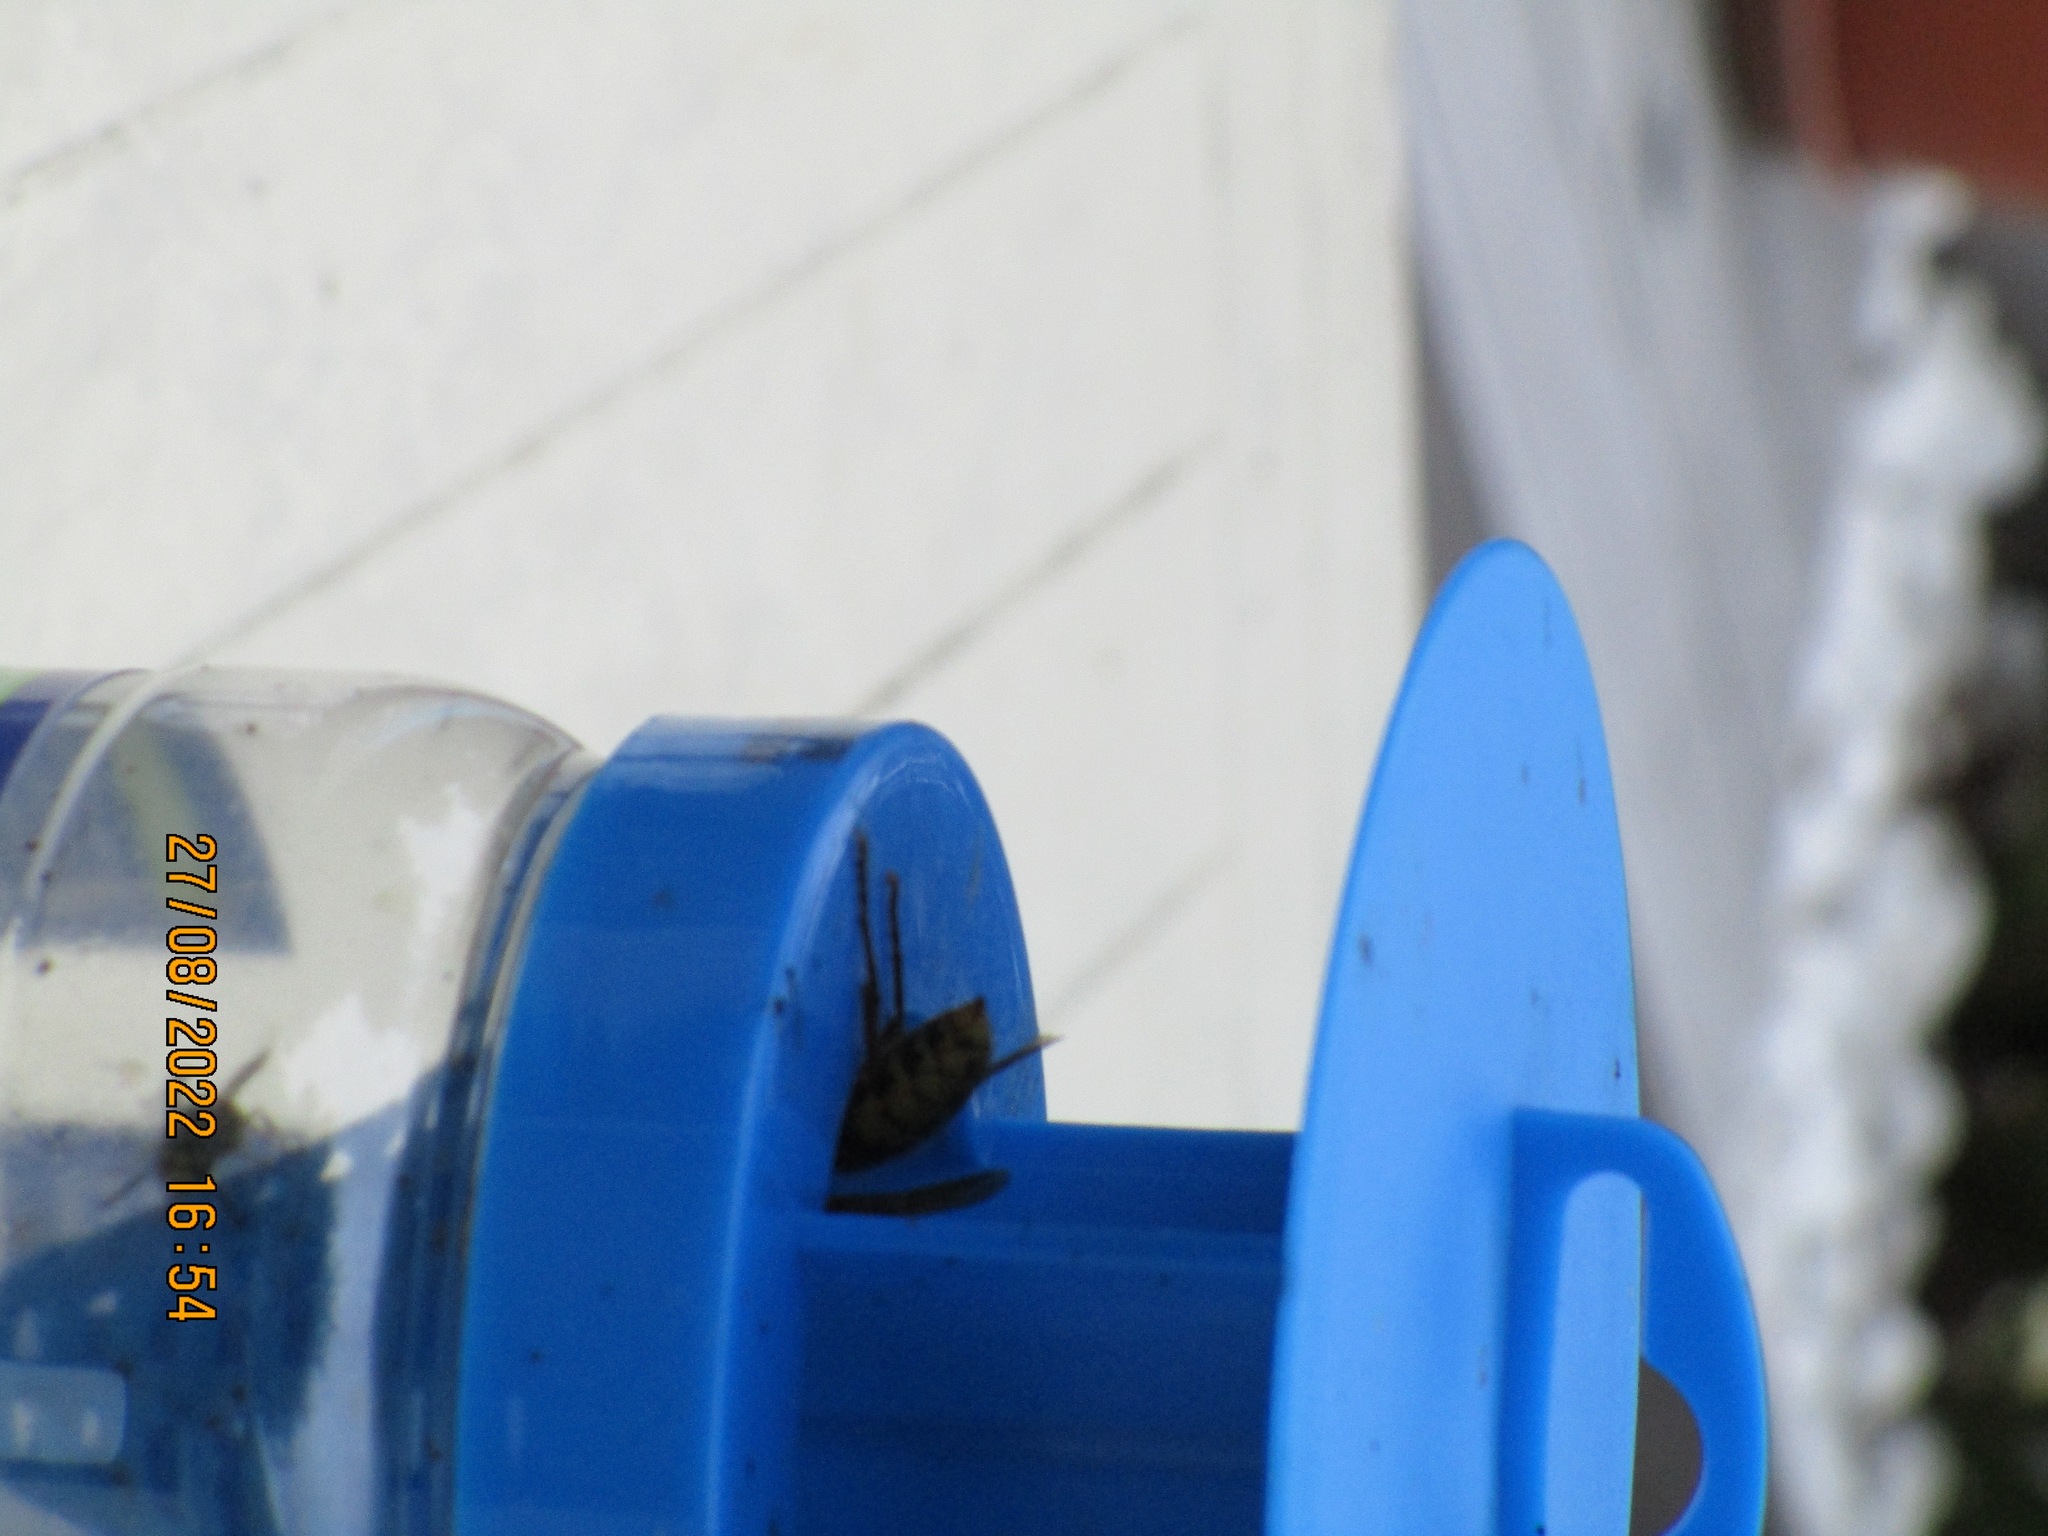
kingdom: Animalia
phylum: Arthropoda
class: Insecta
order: Hymenoptera
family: Vespidae
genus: Vespa
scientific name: Vespa crabro
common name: Hornet
